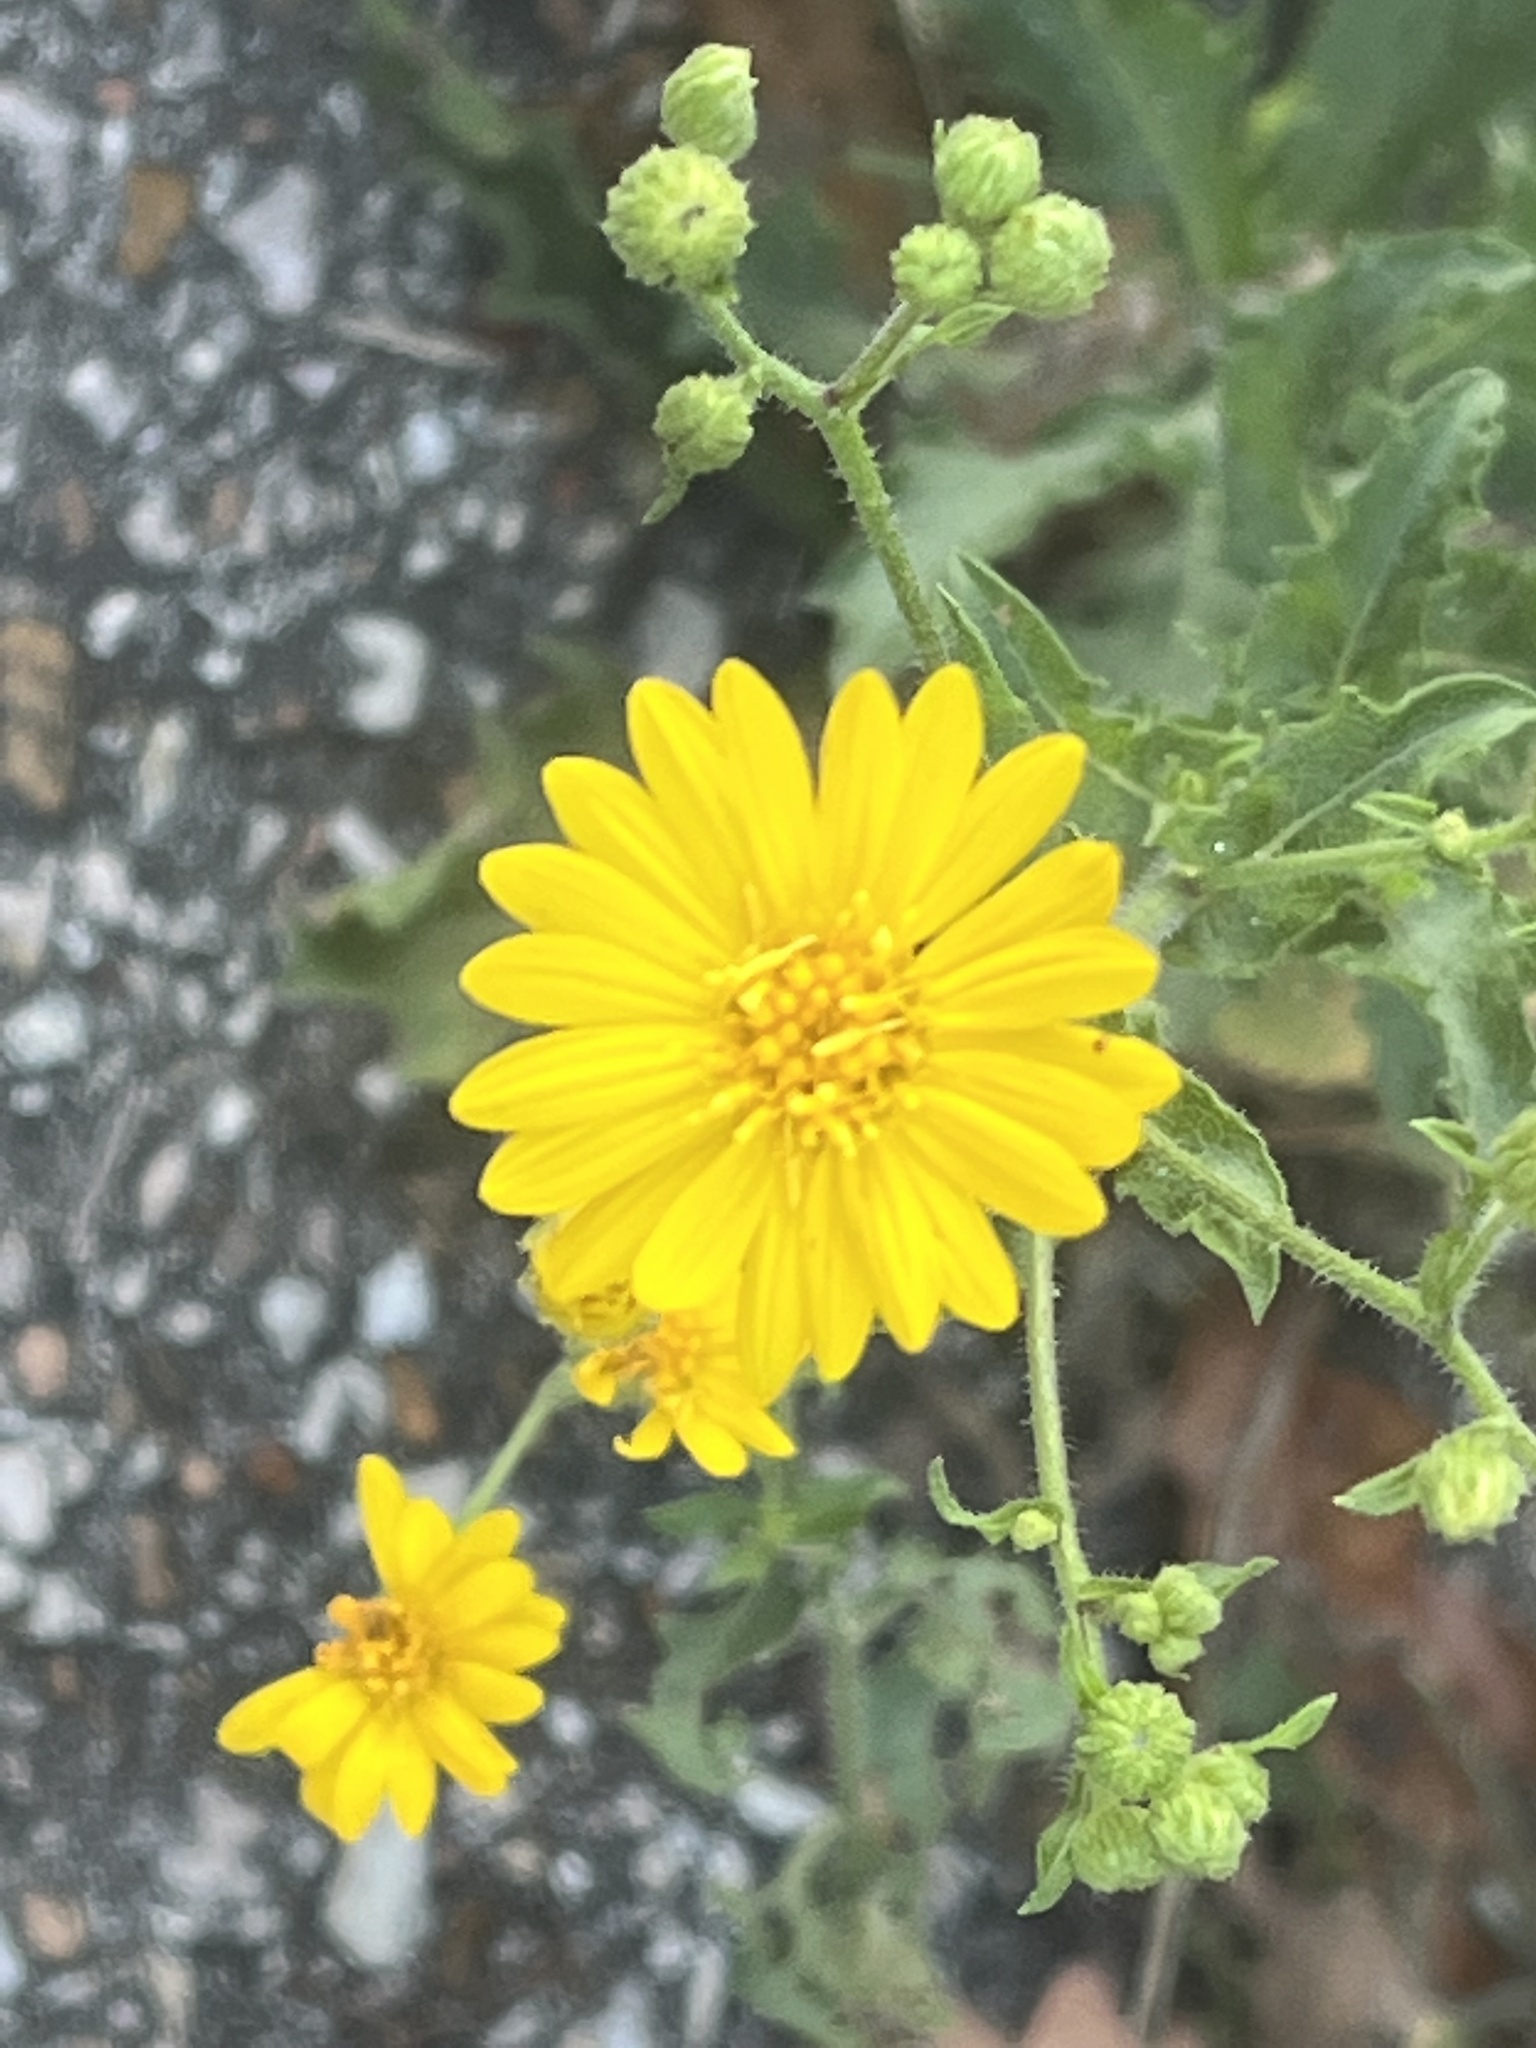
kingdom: Plantae
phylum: Tracheophyta
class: Magnoliopsida
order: Asterales
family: Asteraceae
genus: Heterotheca
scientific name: Heterotheca subaxillaris
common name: Camphorweed
